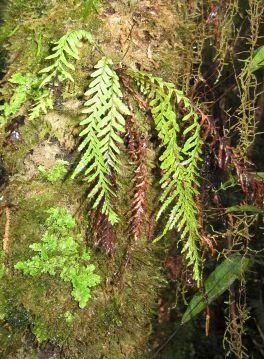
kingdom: Plantae
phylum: Tracheophyta
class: Polypodiopsida
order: Polypodiales
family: Polypodiaceae
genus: Notogrammitis
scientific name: Notogrammitis heterophylla
